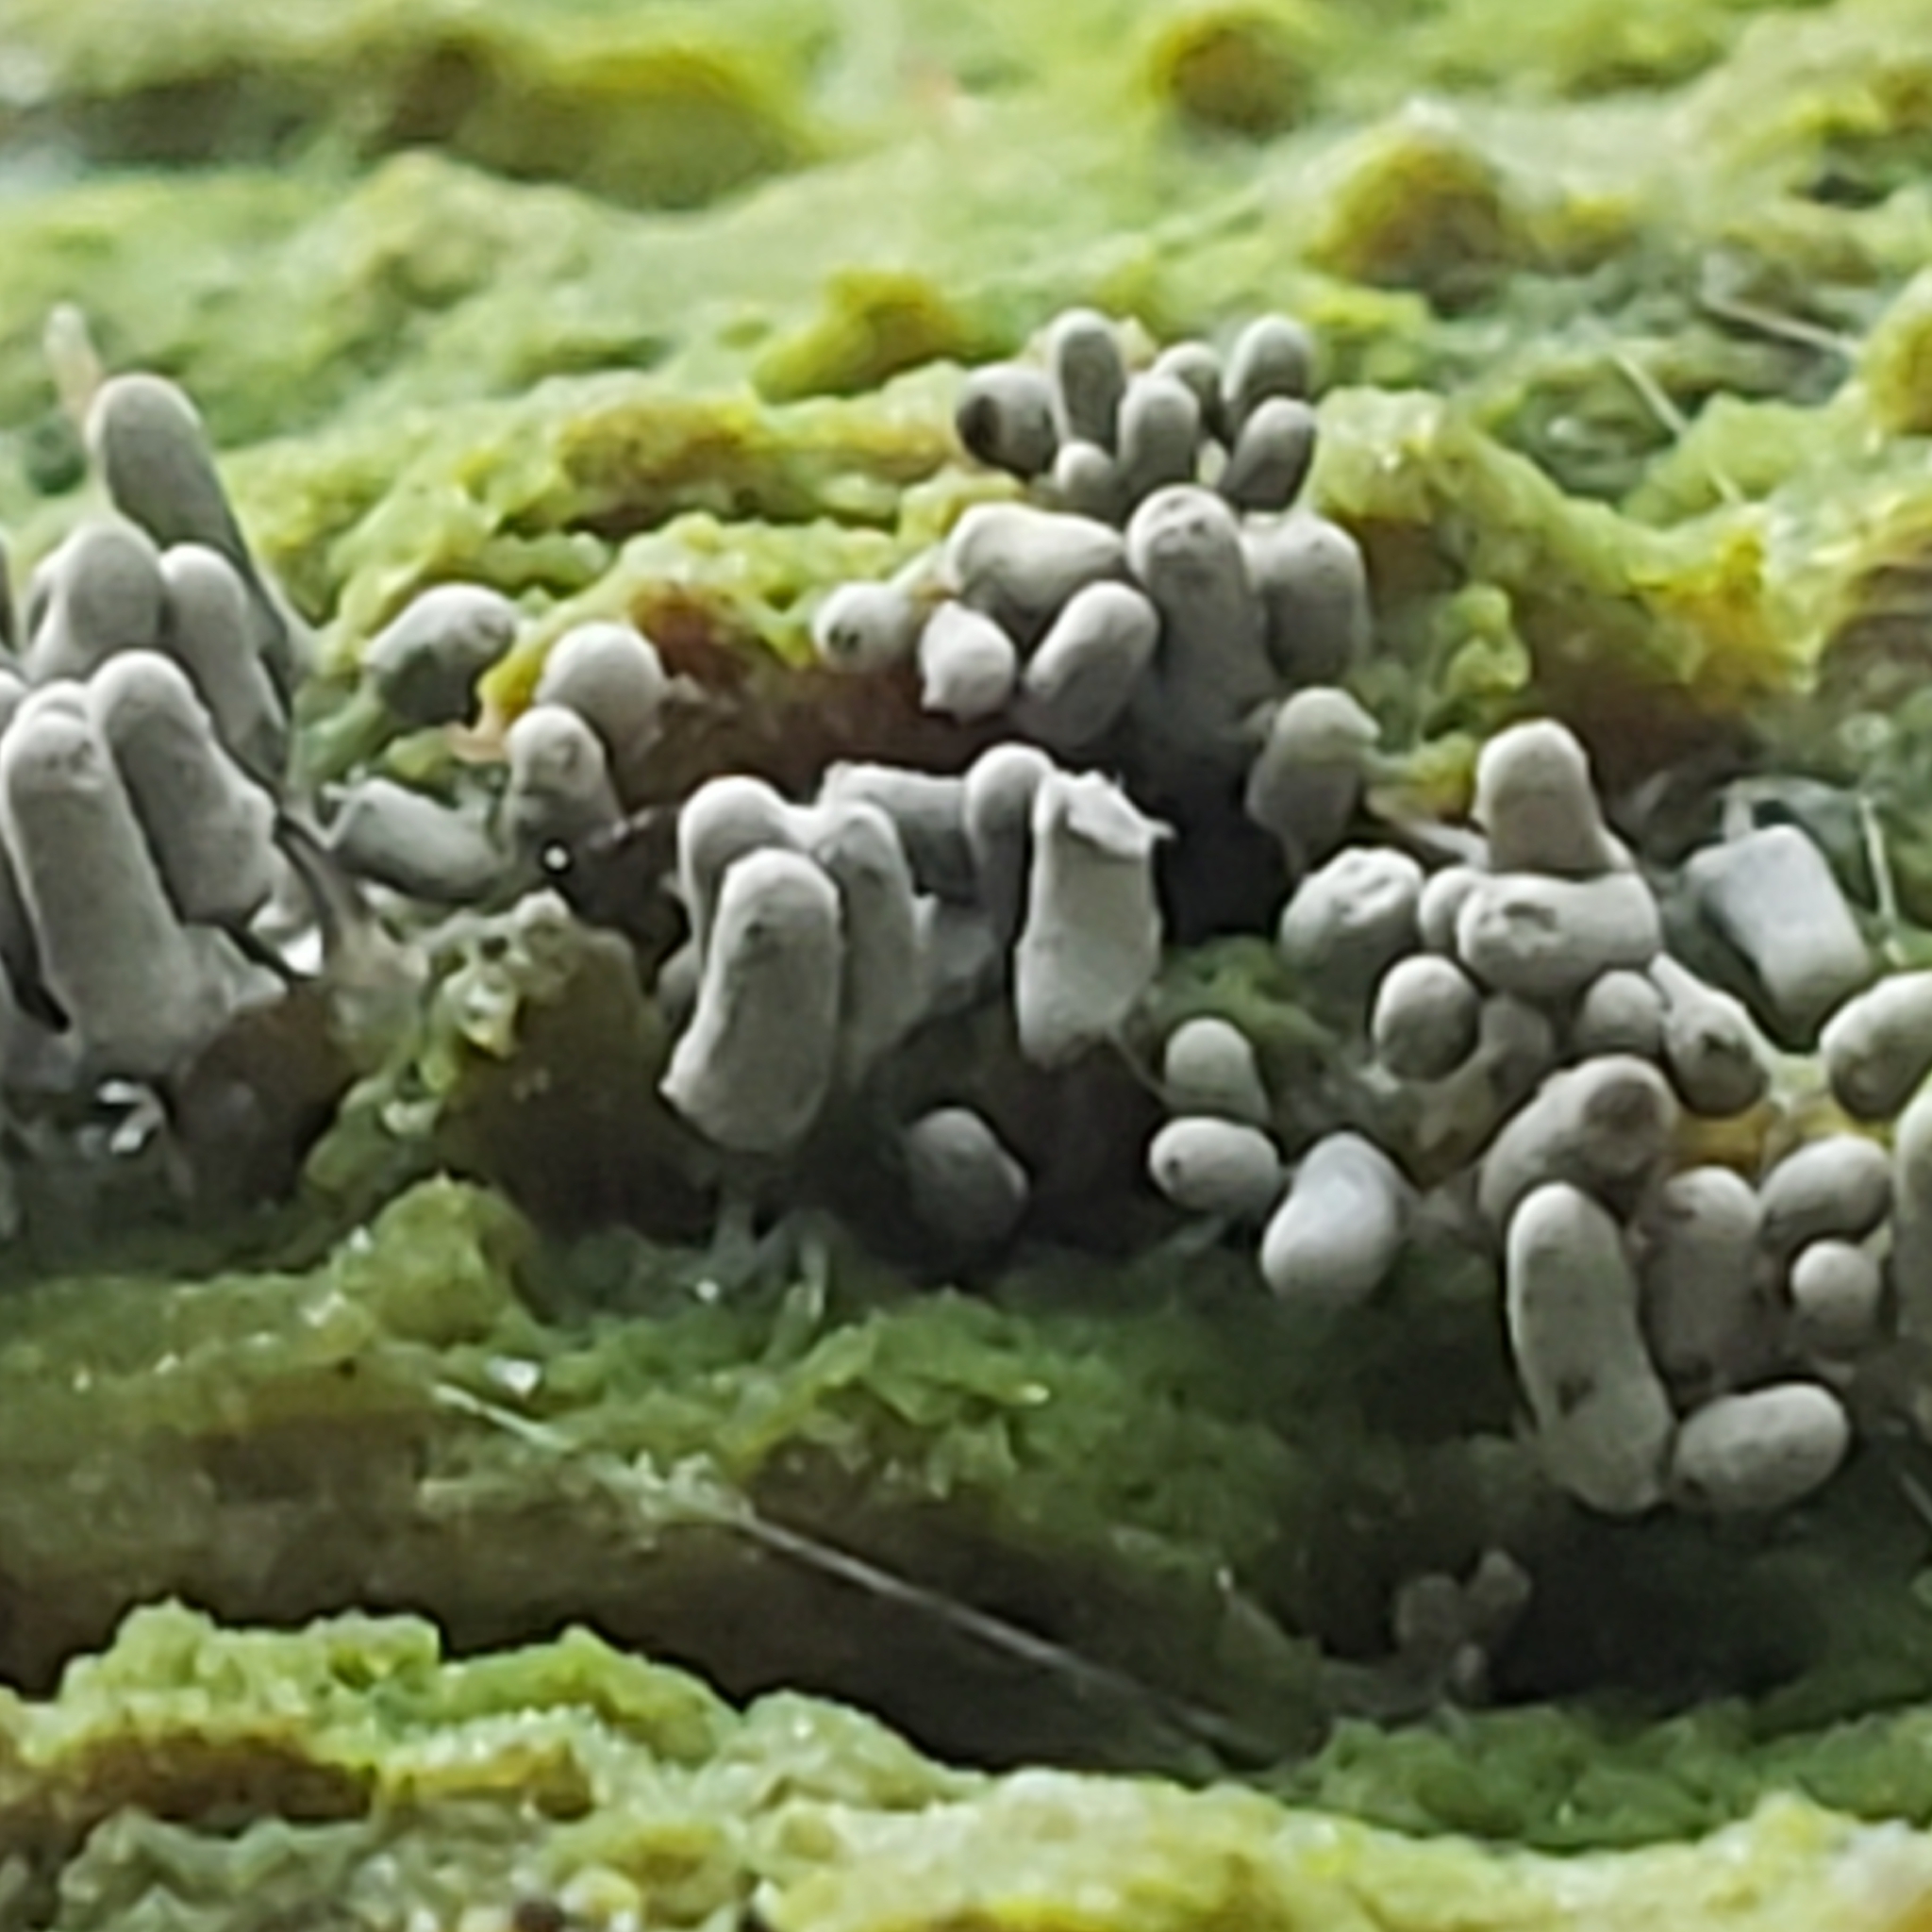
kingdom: Protozoa
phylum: Mycetozoa
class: Myxomycetes
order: Trichiales
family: Arcyriaceae
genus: Arcyria
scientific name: Arcyria cinerea
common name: White carnival candy slime mold
